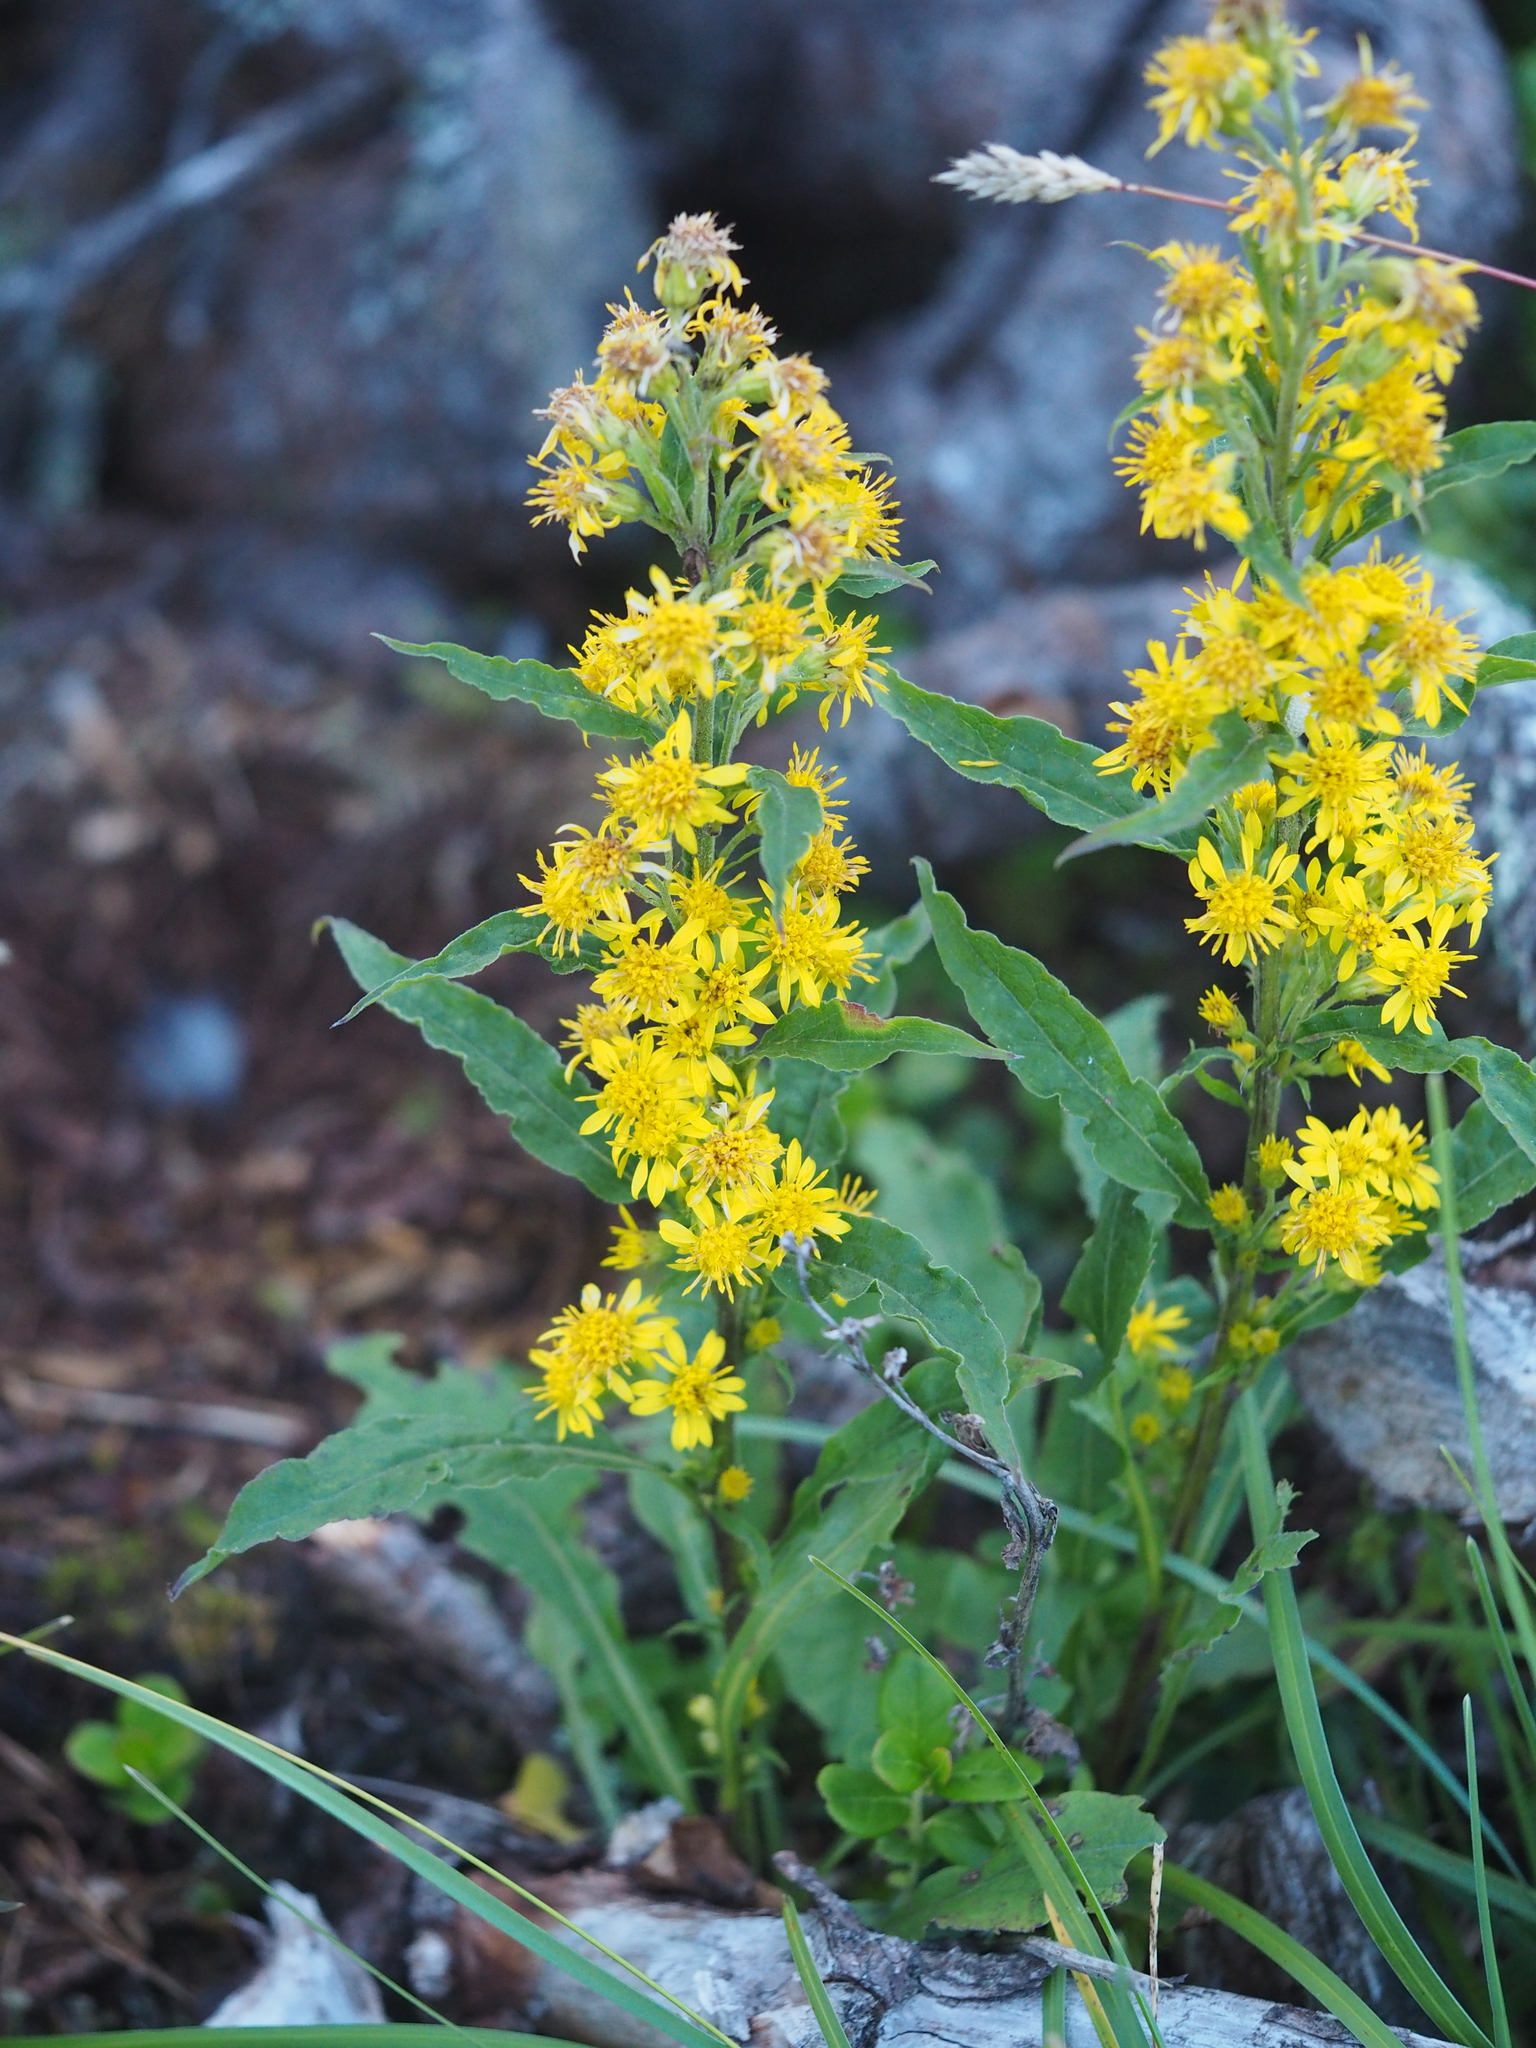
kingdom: Plantae
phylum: Tracheophyta
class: Magnoliopsida
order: Asterales
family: Asteraceae
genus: Solidago
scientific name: Solidago virgaurea
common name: Goldenrod
